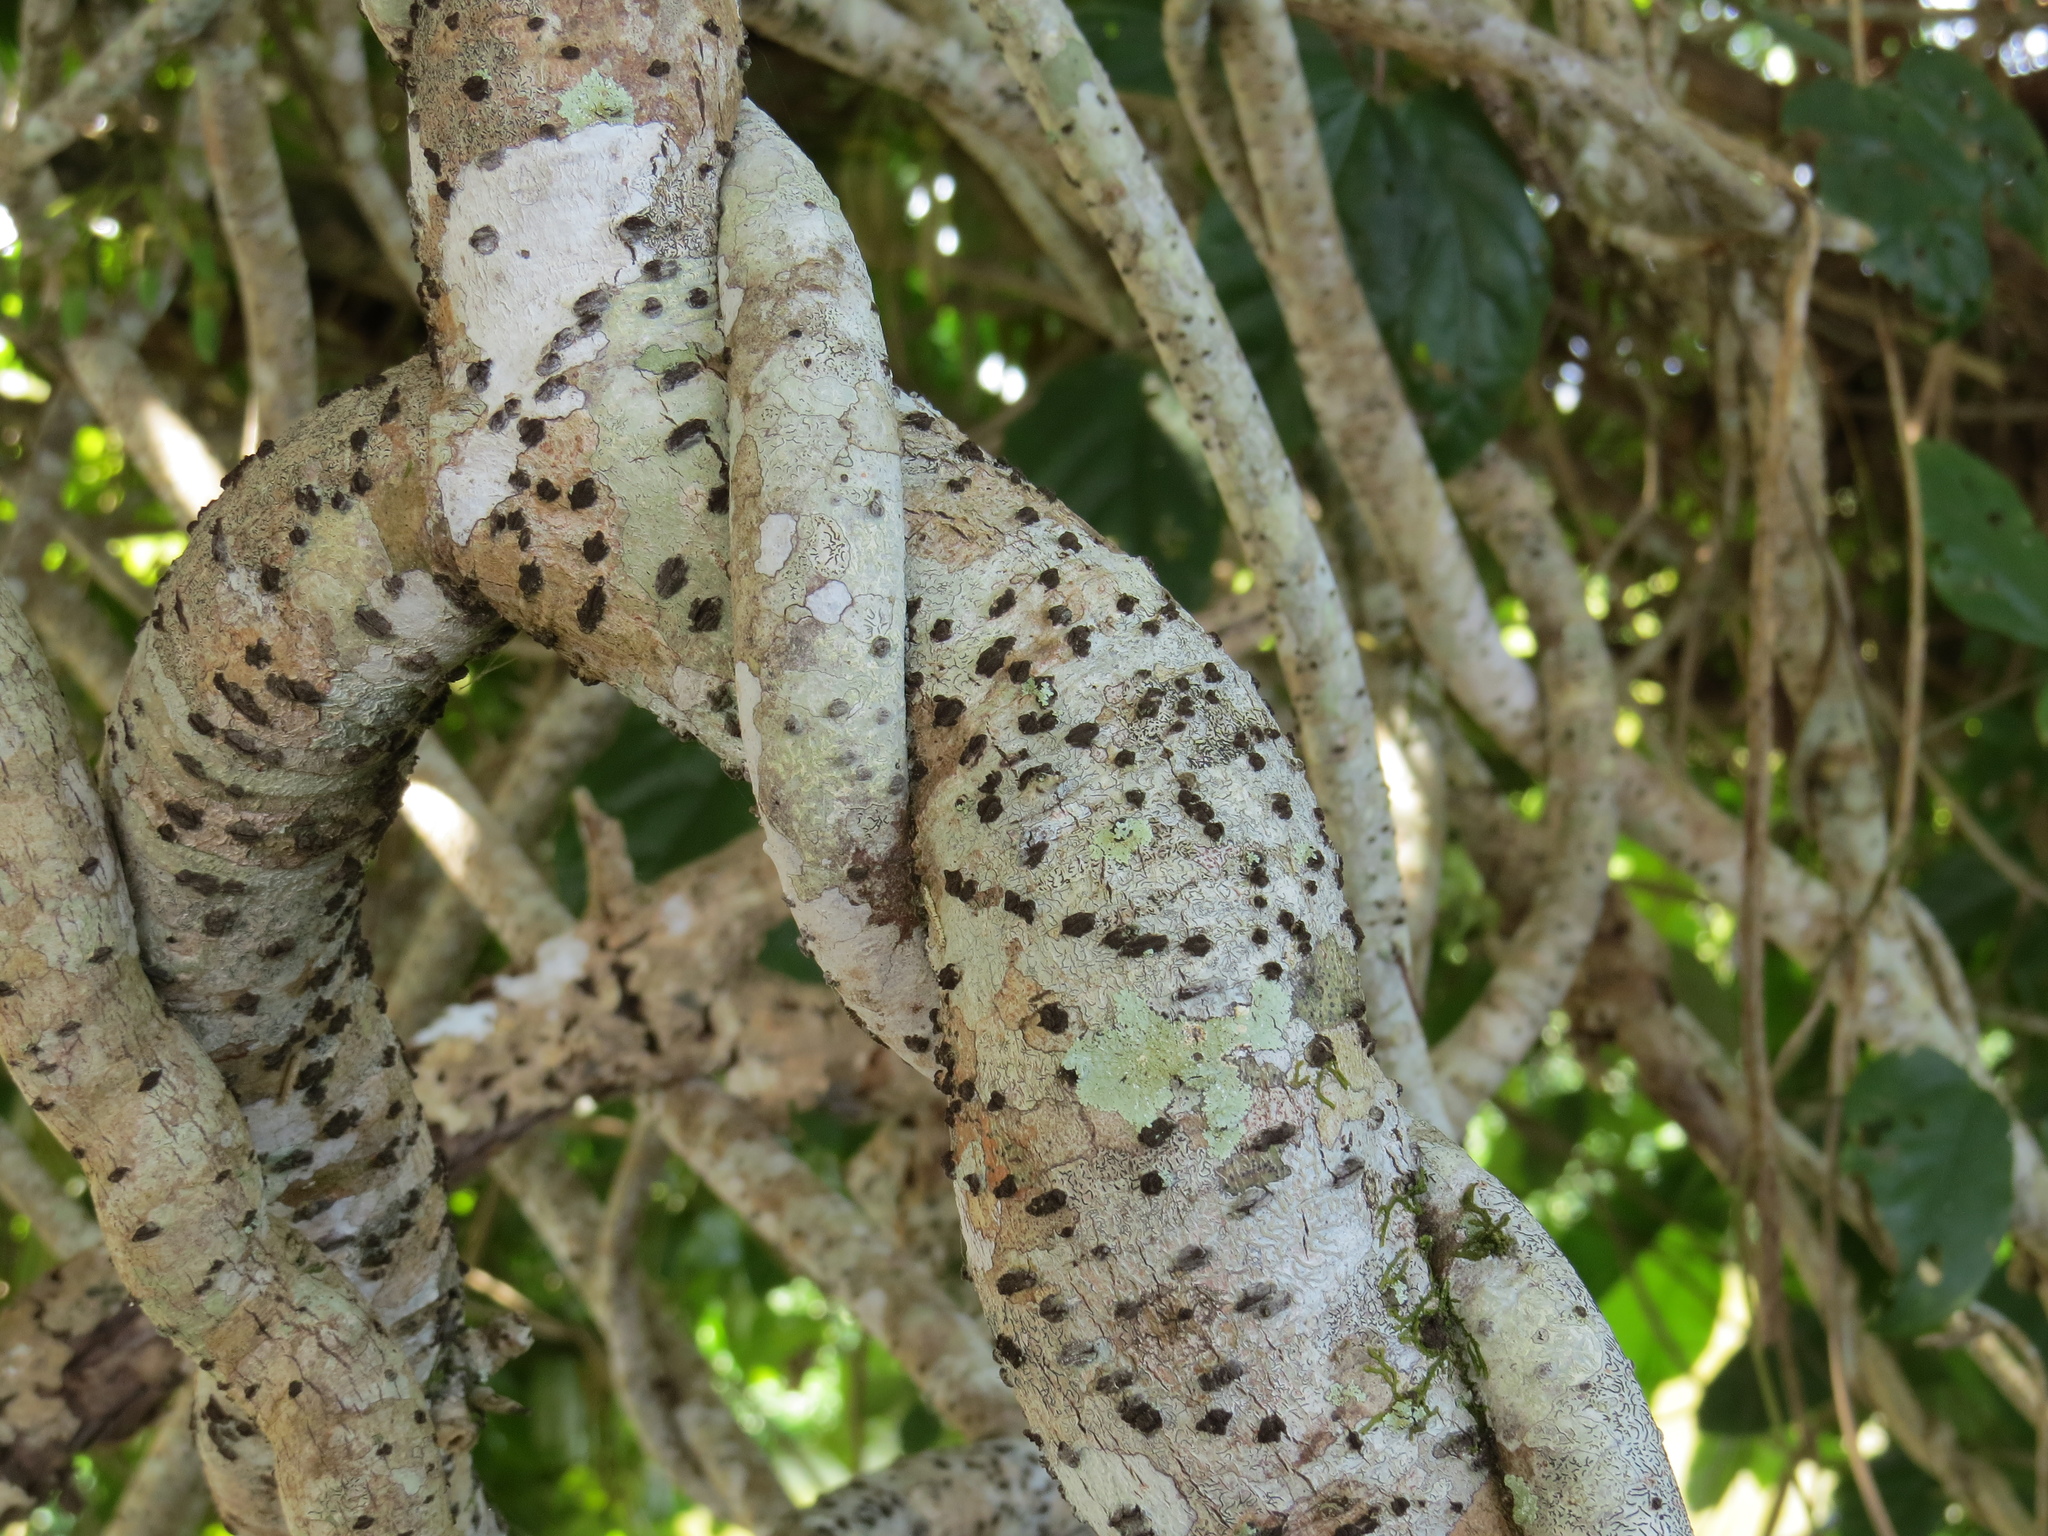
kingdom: Plantae
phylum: Tracheophyta
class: Magnoliopsida
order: Fabales
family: Fabaceae
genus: Mucuna
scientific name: Mucuna gigantea
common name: Black-bean
